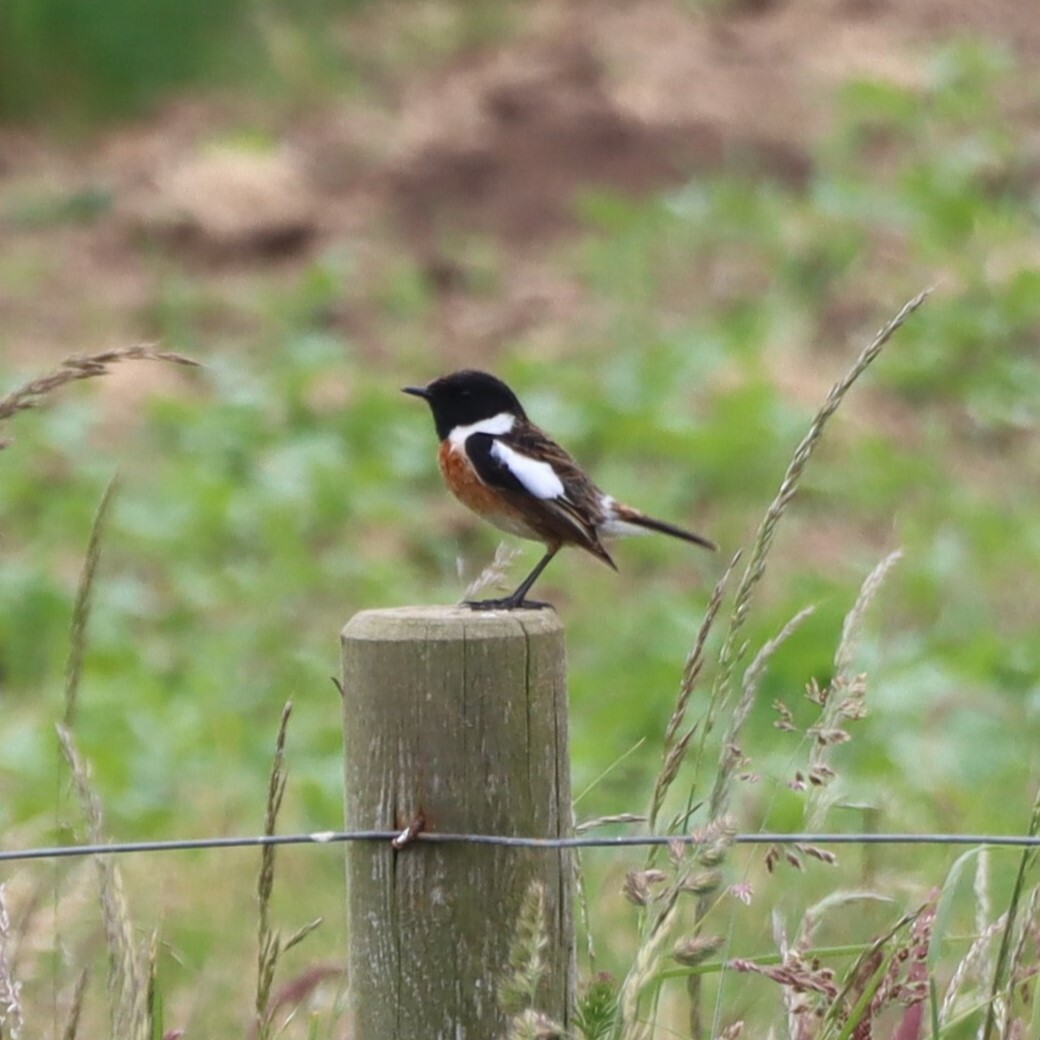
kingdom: Animalia
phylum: Chordata
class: Aves
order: Passeriformes
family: Muscicapidae
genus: Saxicola
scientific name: Saxicola rubicola
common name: European stonechat
